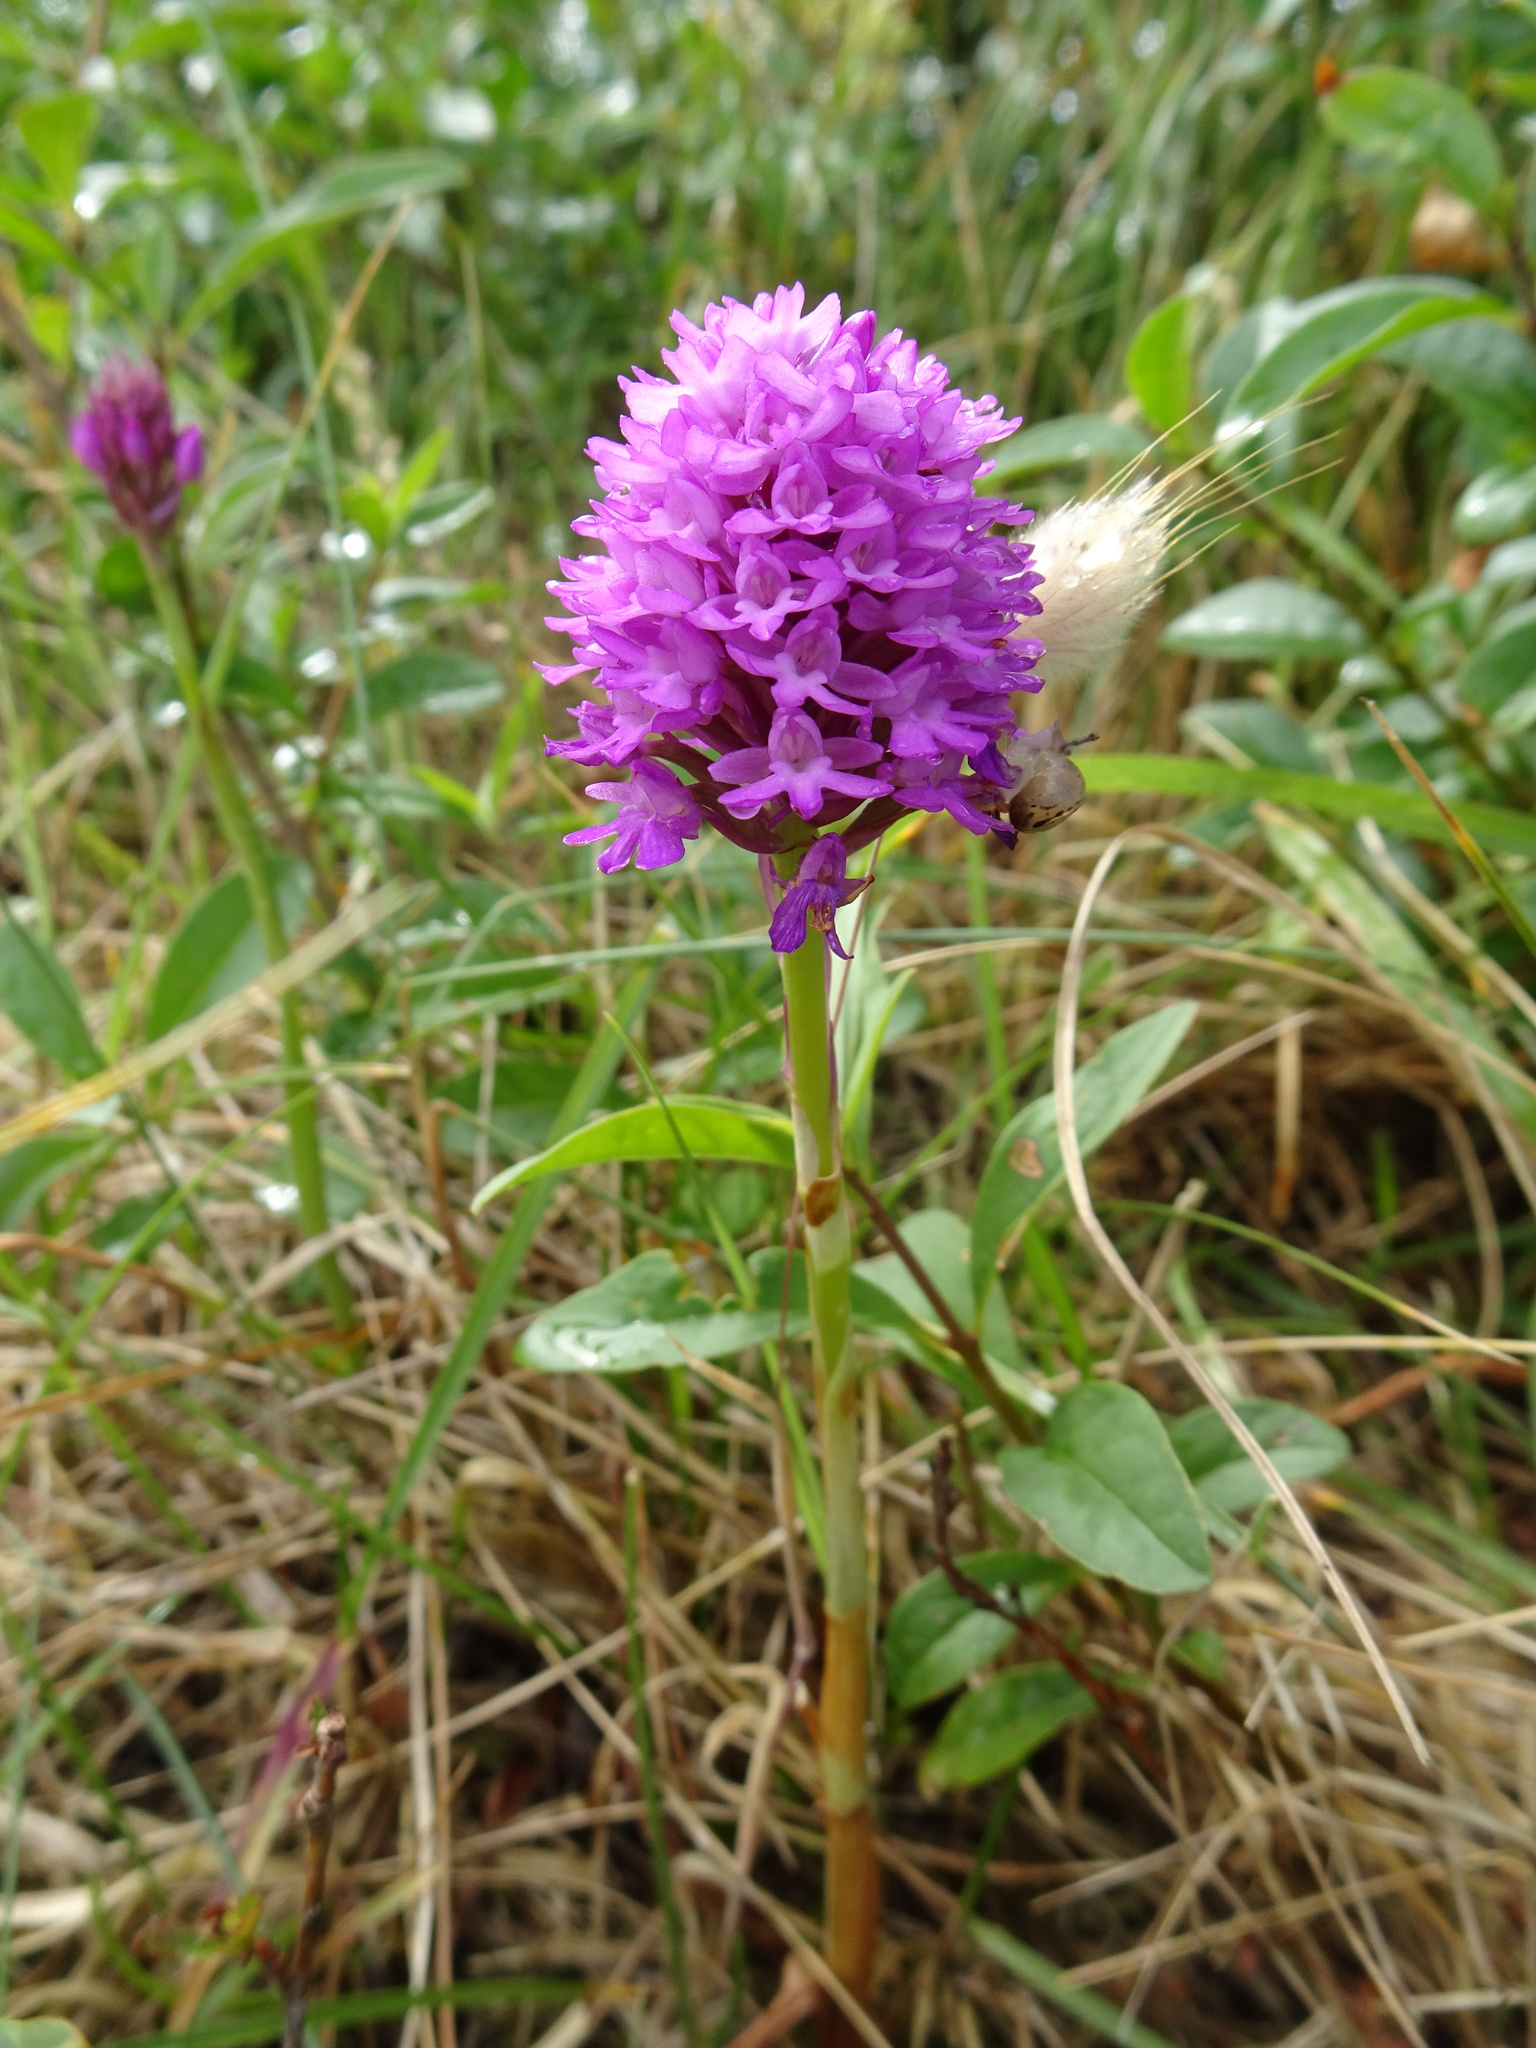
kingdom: Plantae
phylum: Tracheophyta
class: Liliopsida
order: Asparagales
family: Orchidaceae
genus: Anacamptis
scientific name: Anacamptis pyramidalis
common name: Pyramidal orchid
